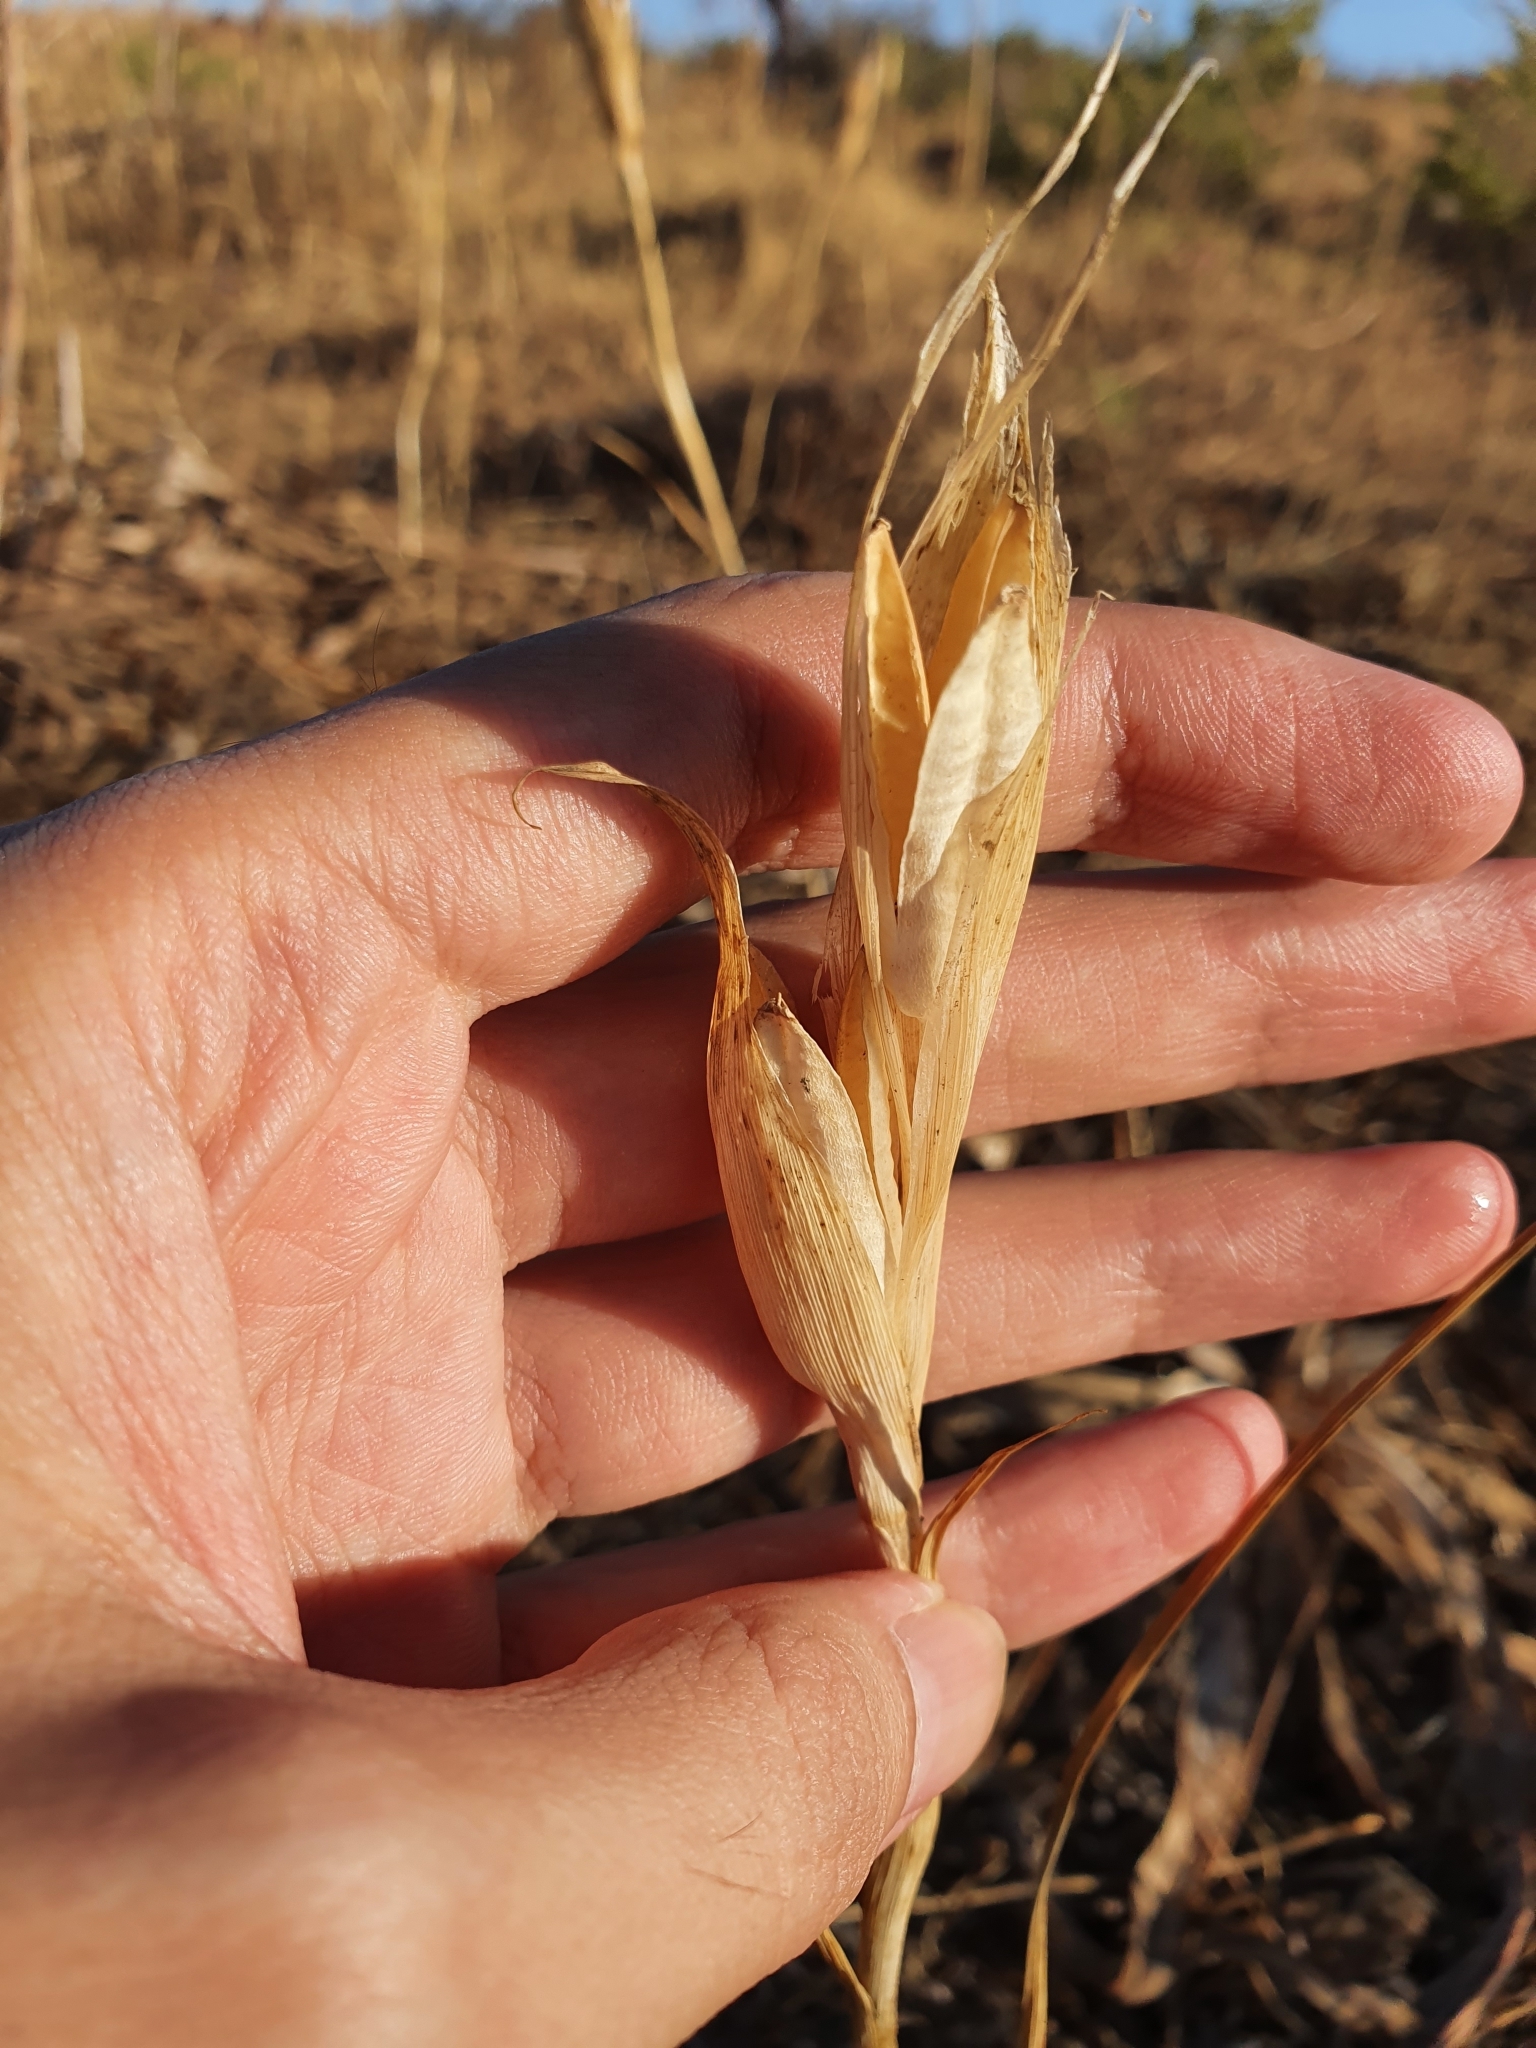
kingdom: Plantae
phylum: Tracheophyta
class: Liliopsida
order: Asparagales
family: Iridaceae
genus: Iris
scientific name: Iris juncea
